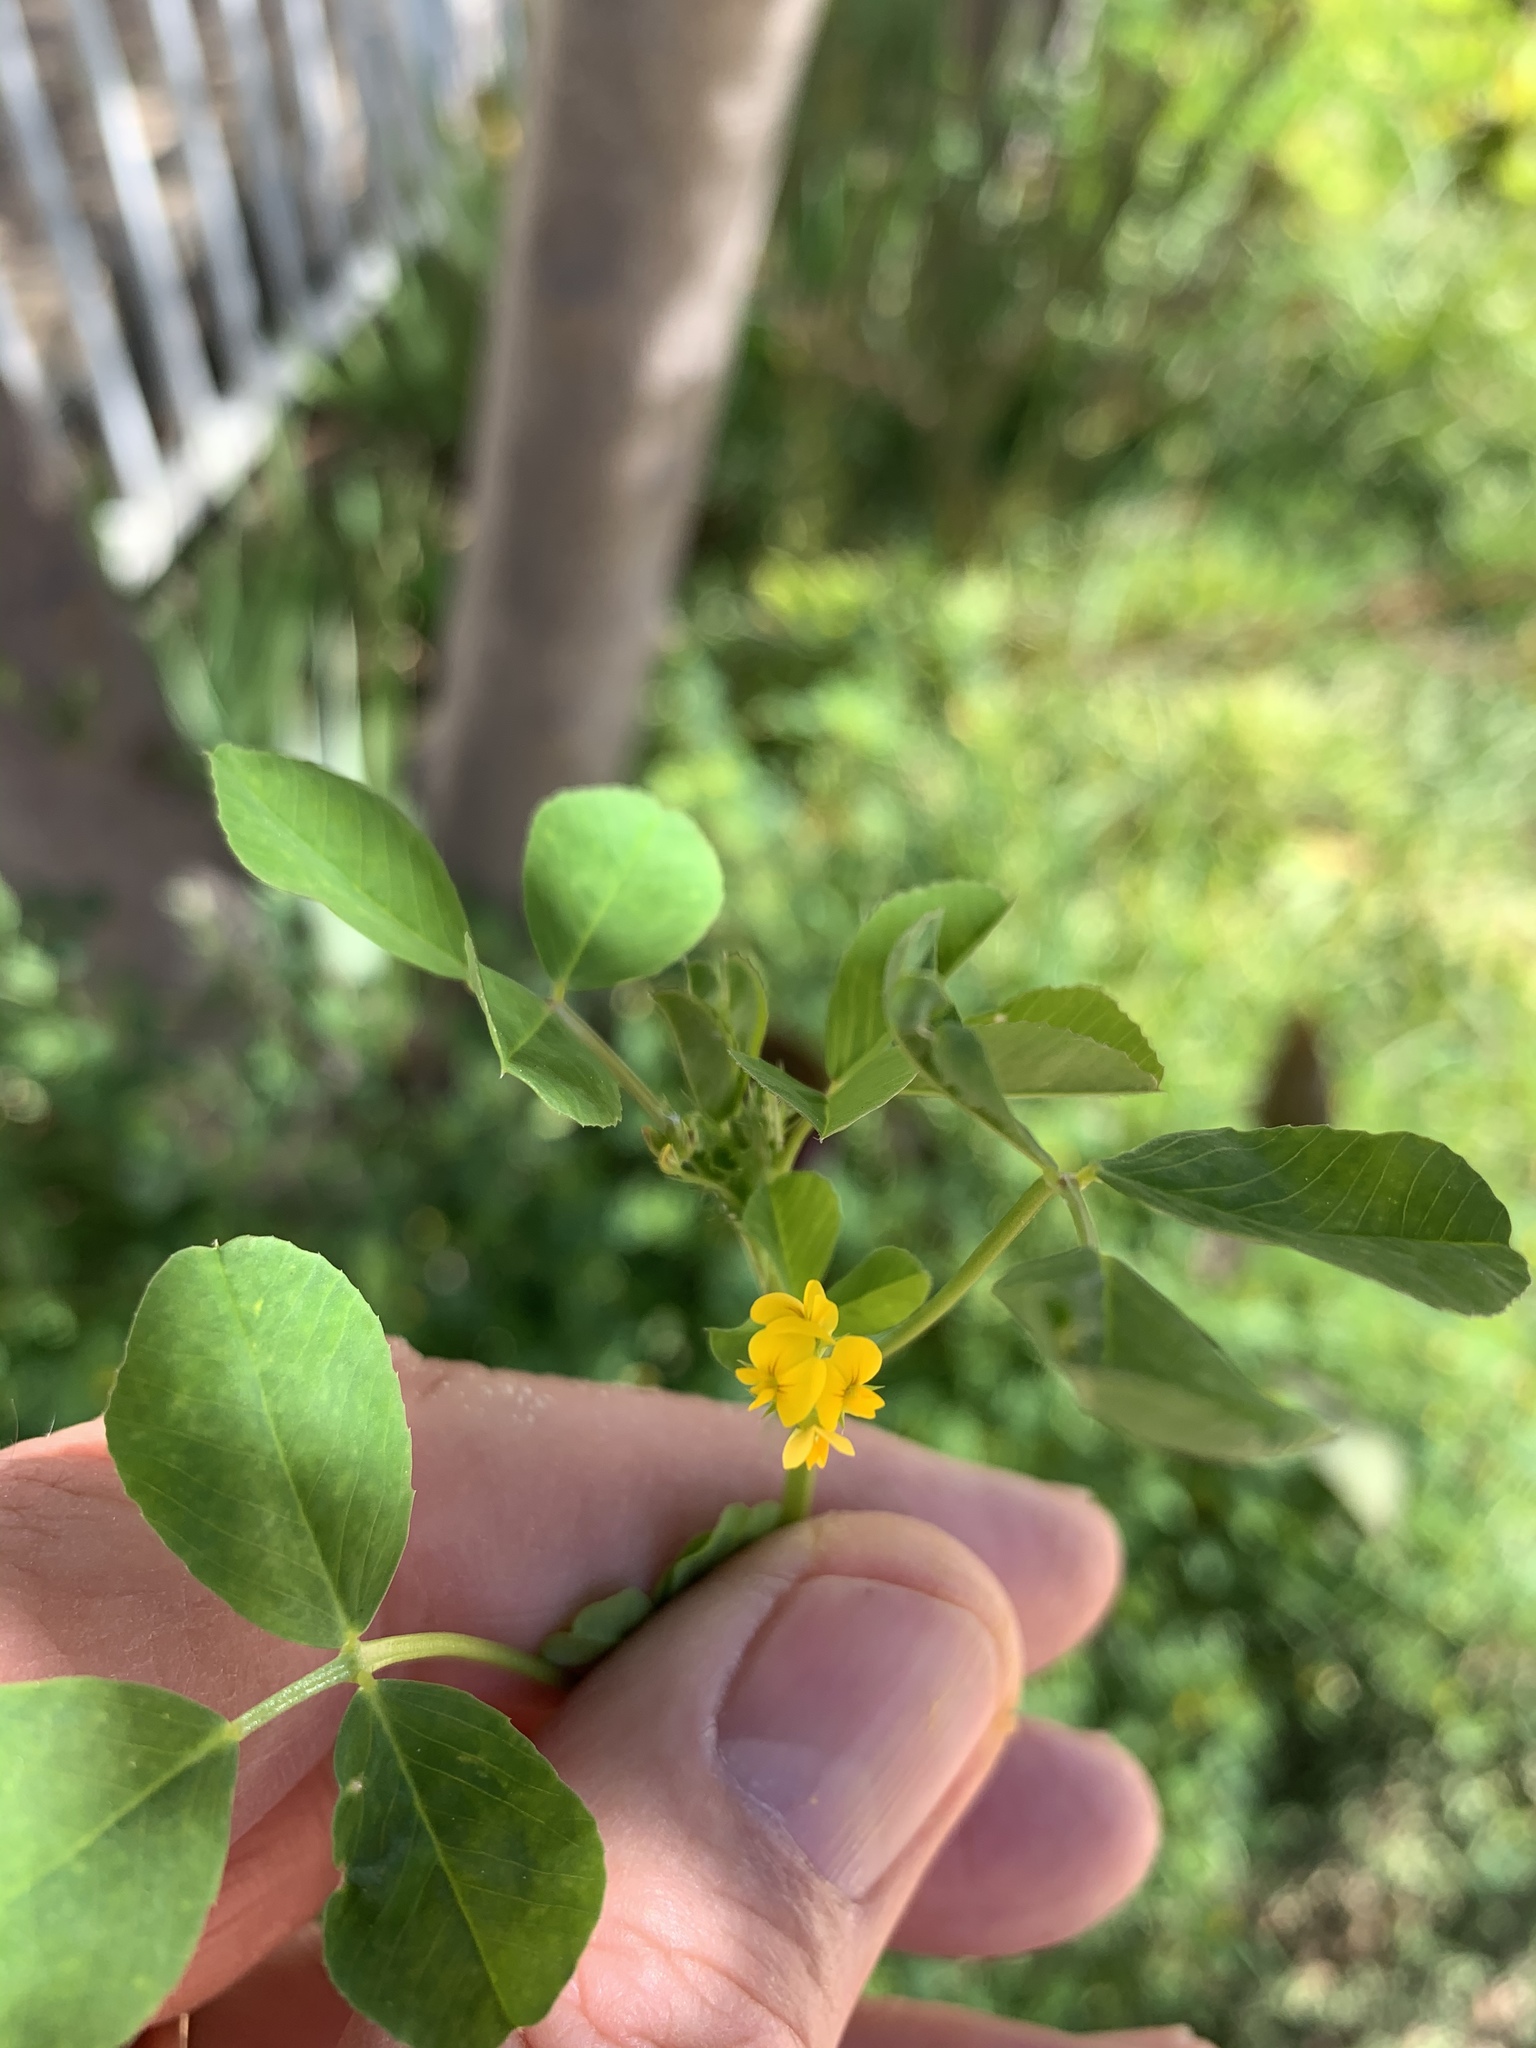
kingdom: Plantae
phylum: Tracheophyta
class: Magnoliopsida
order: Fabales
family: Fabaceae
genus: Medicago
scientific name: Medicago polymorpha
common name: Burclover
